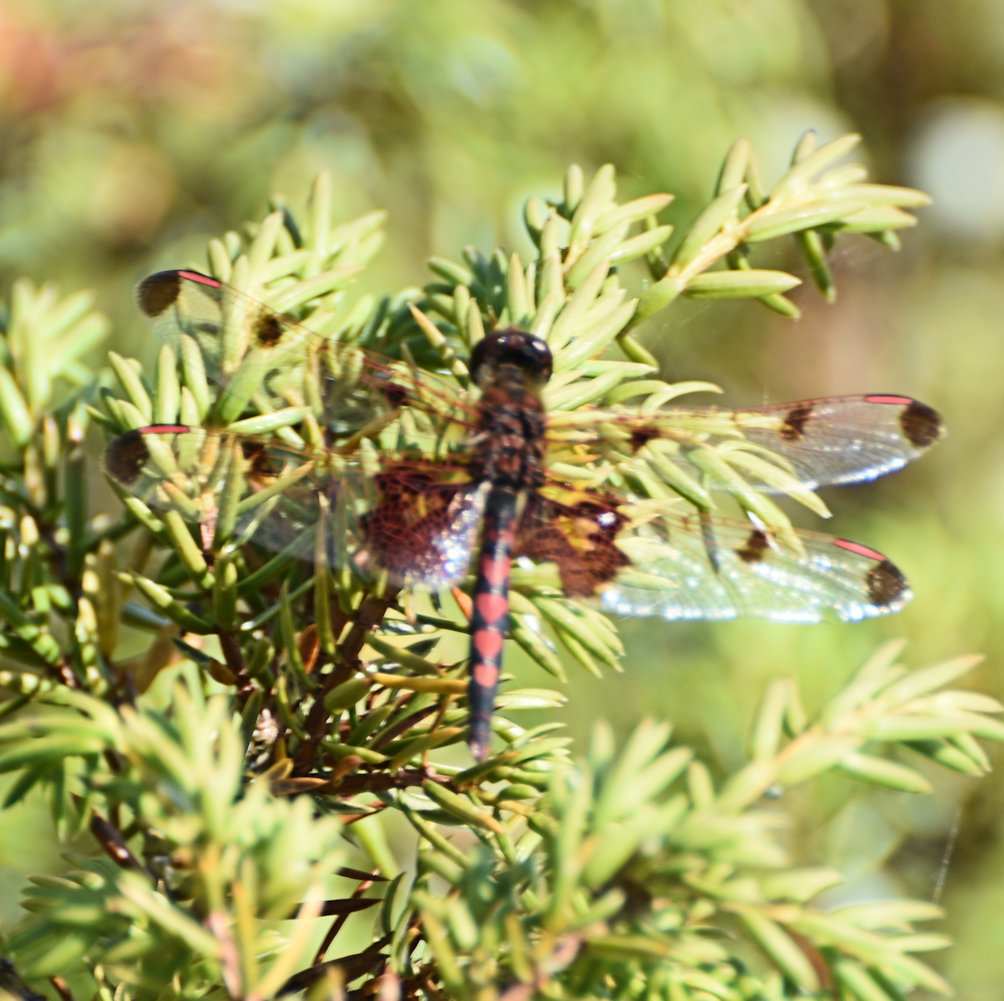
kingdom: Animalia
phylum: Arthropoda
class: Insecta
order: Odonata
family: Libellulidae
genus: Celithemis
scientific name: Celithemis elisa
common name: Calico pennant
